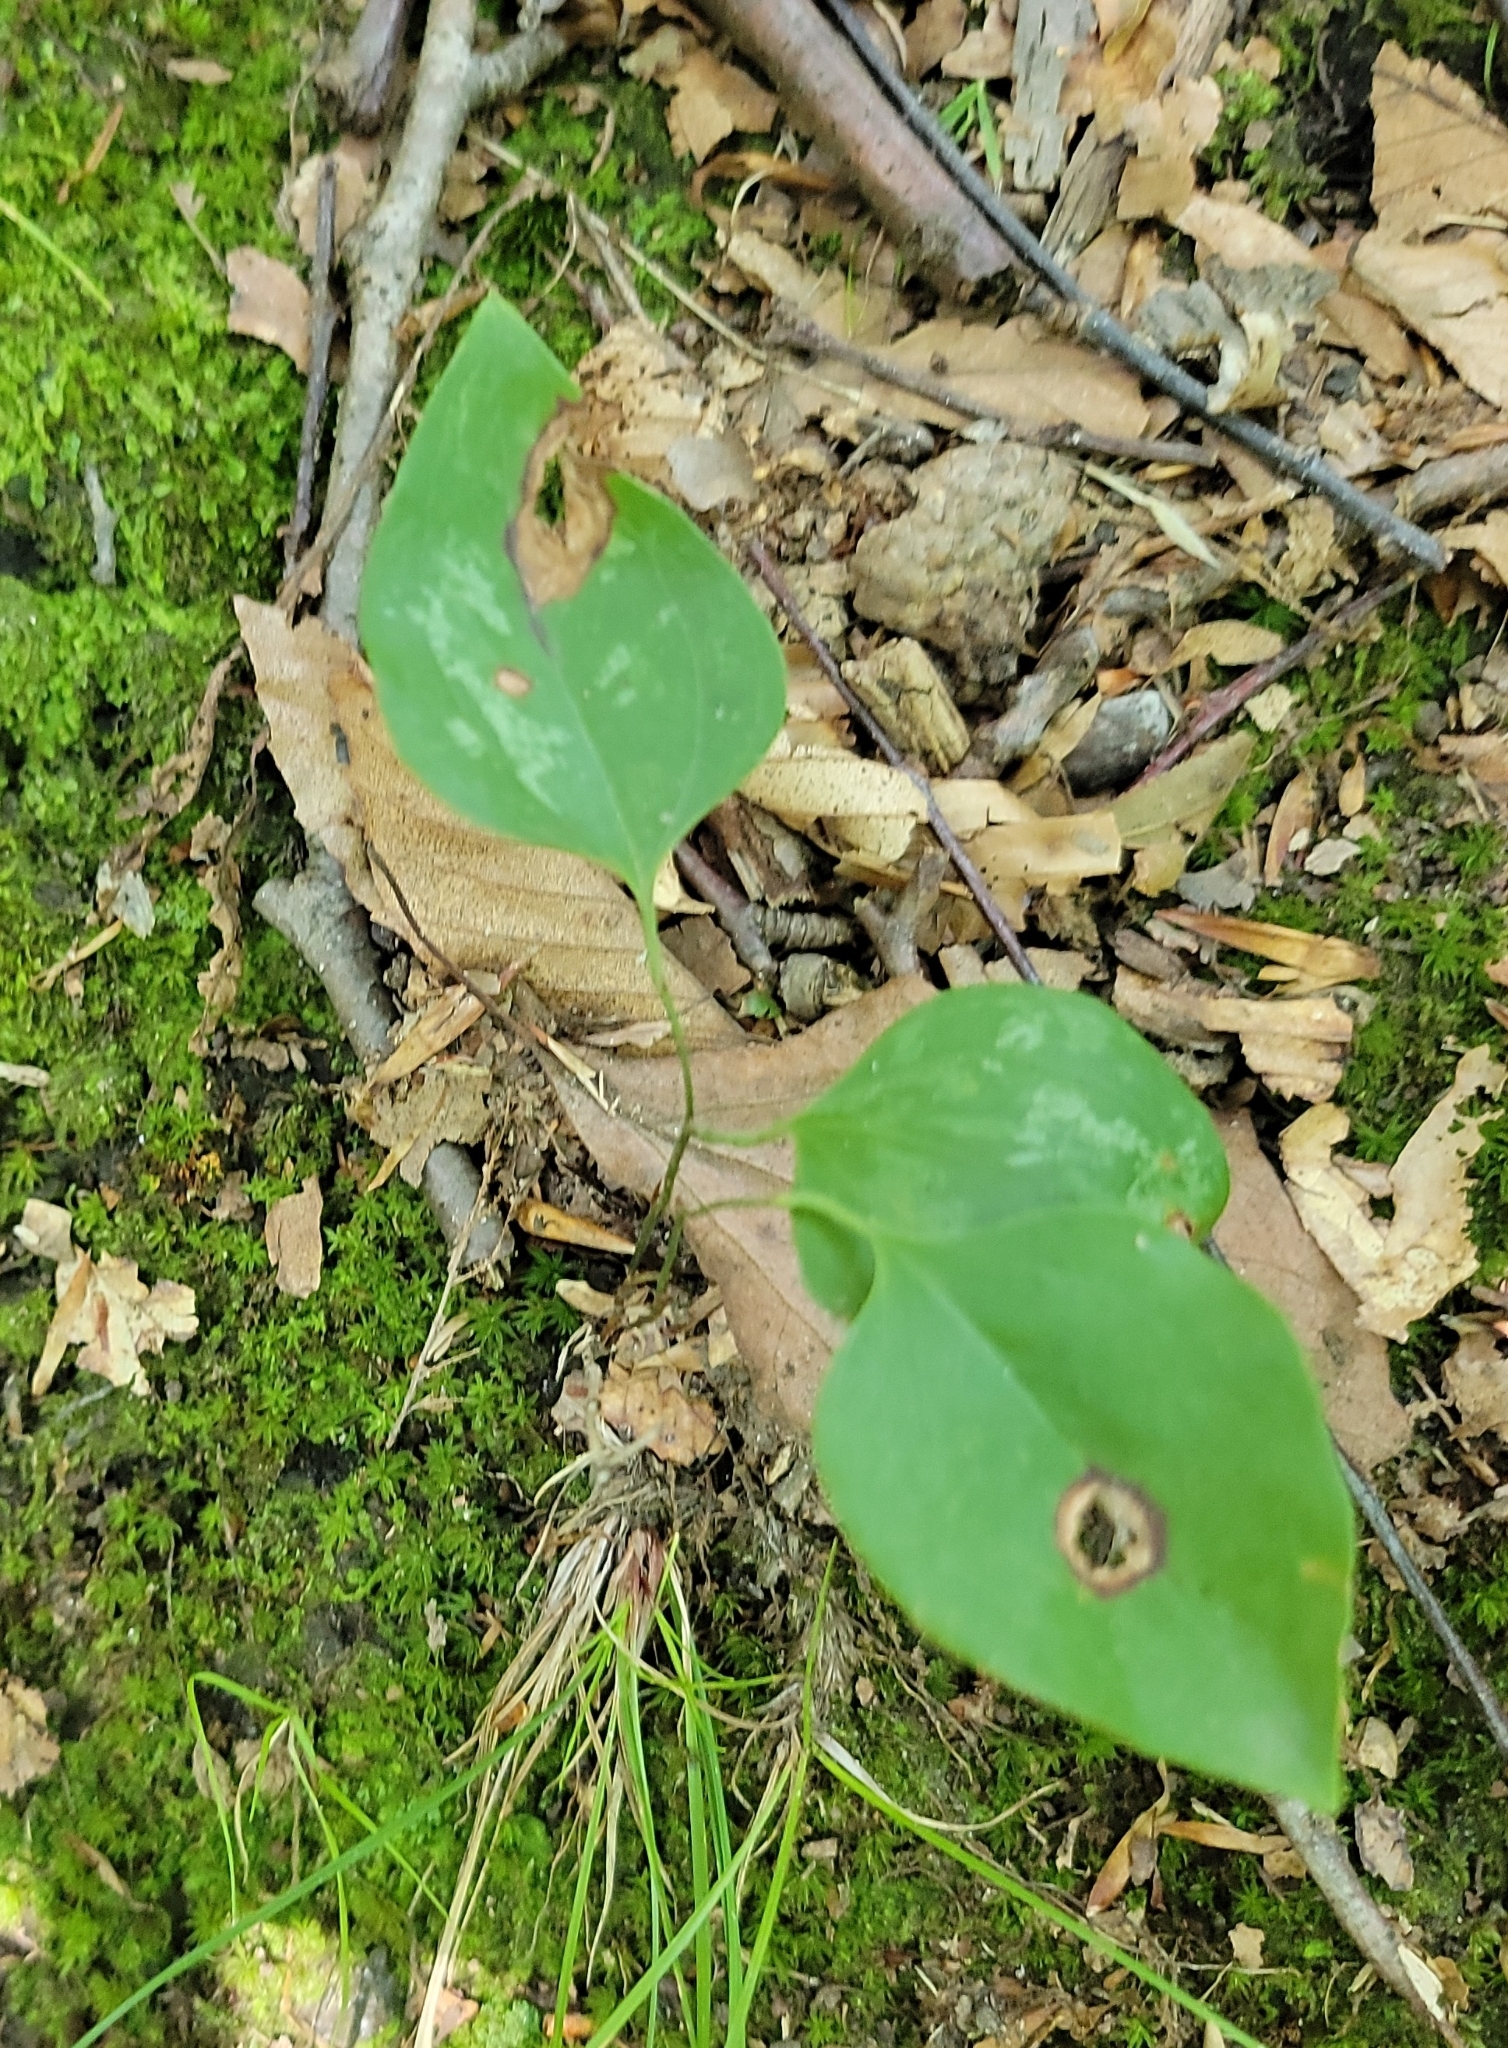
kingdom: Plantae
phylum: Tracheophyta
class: Liliopsida
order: Liliales
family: Smilacaceae
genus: Smilax
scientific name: Smilax glauca
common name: Cat greenbrier
